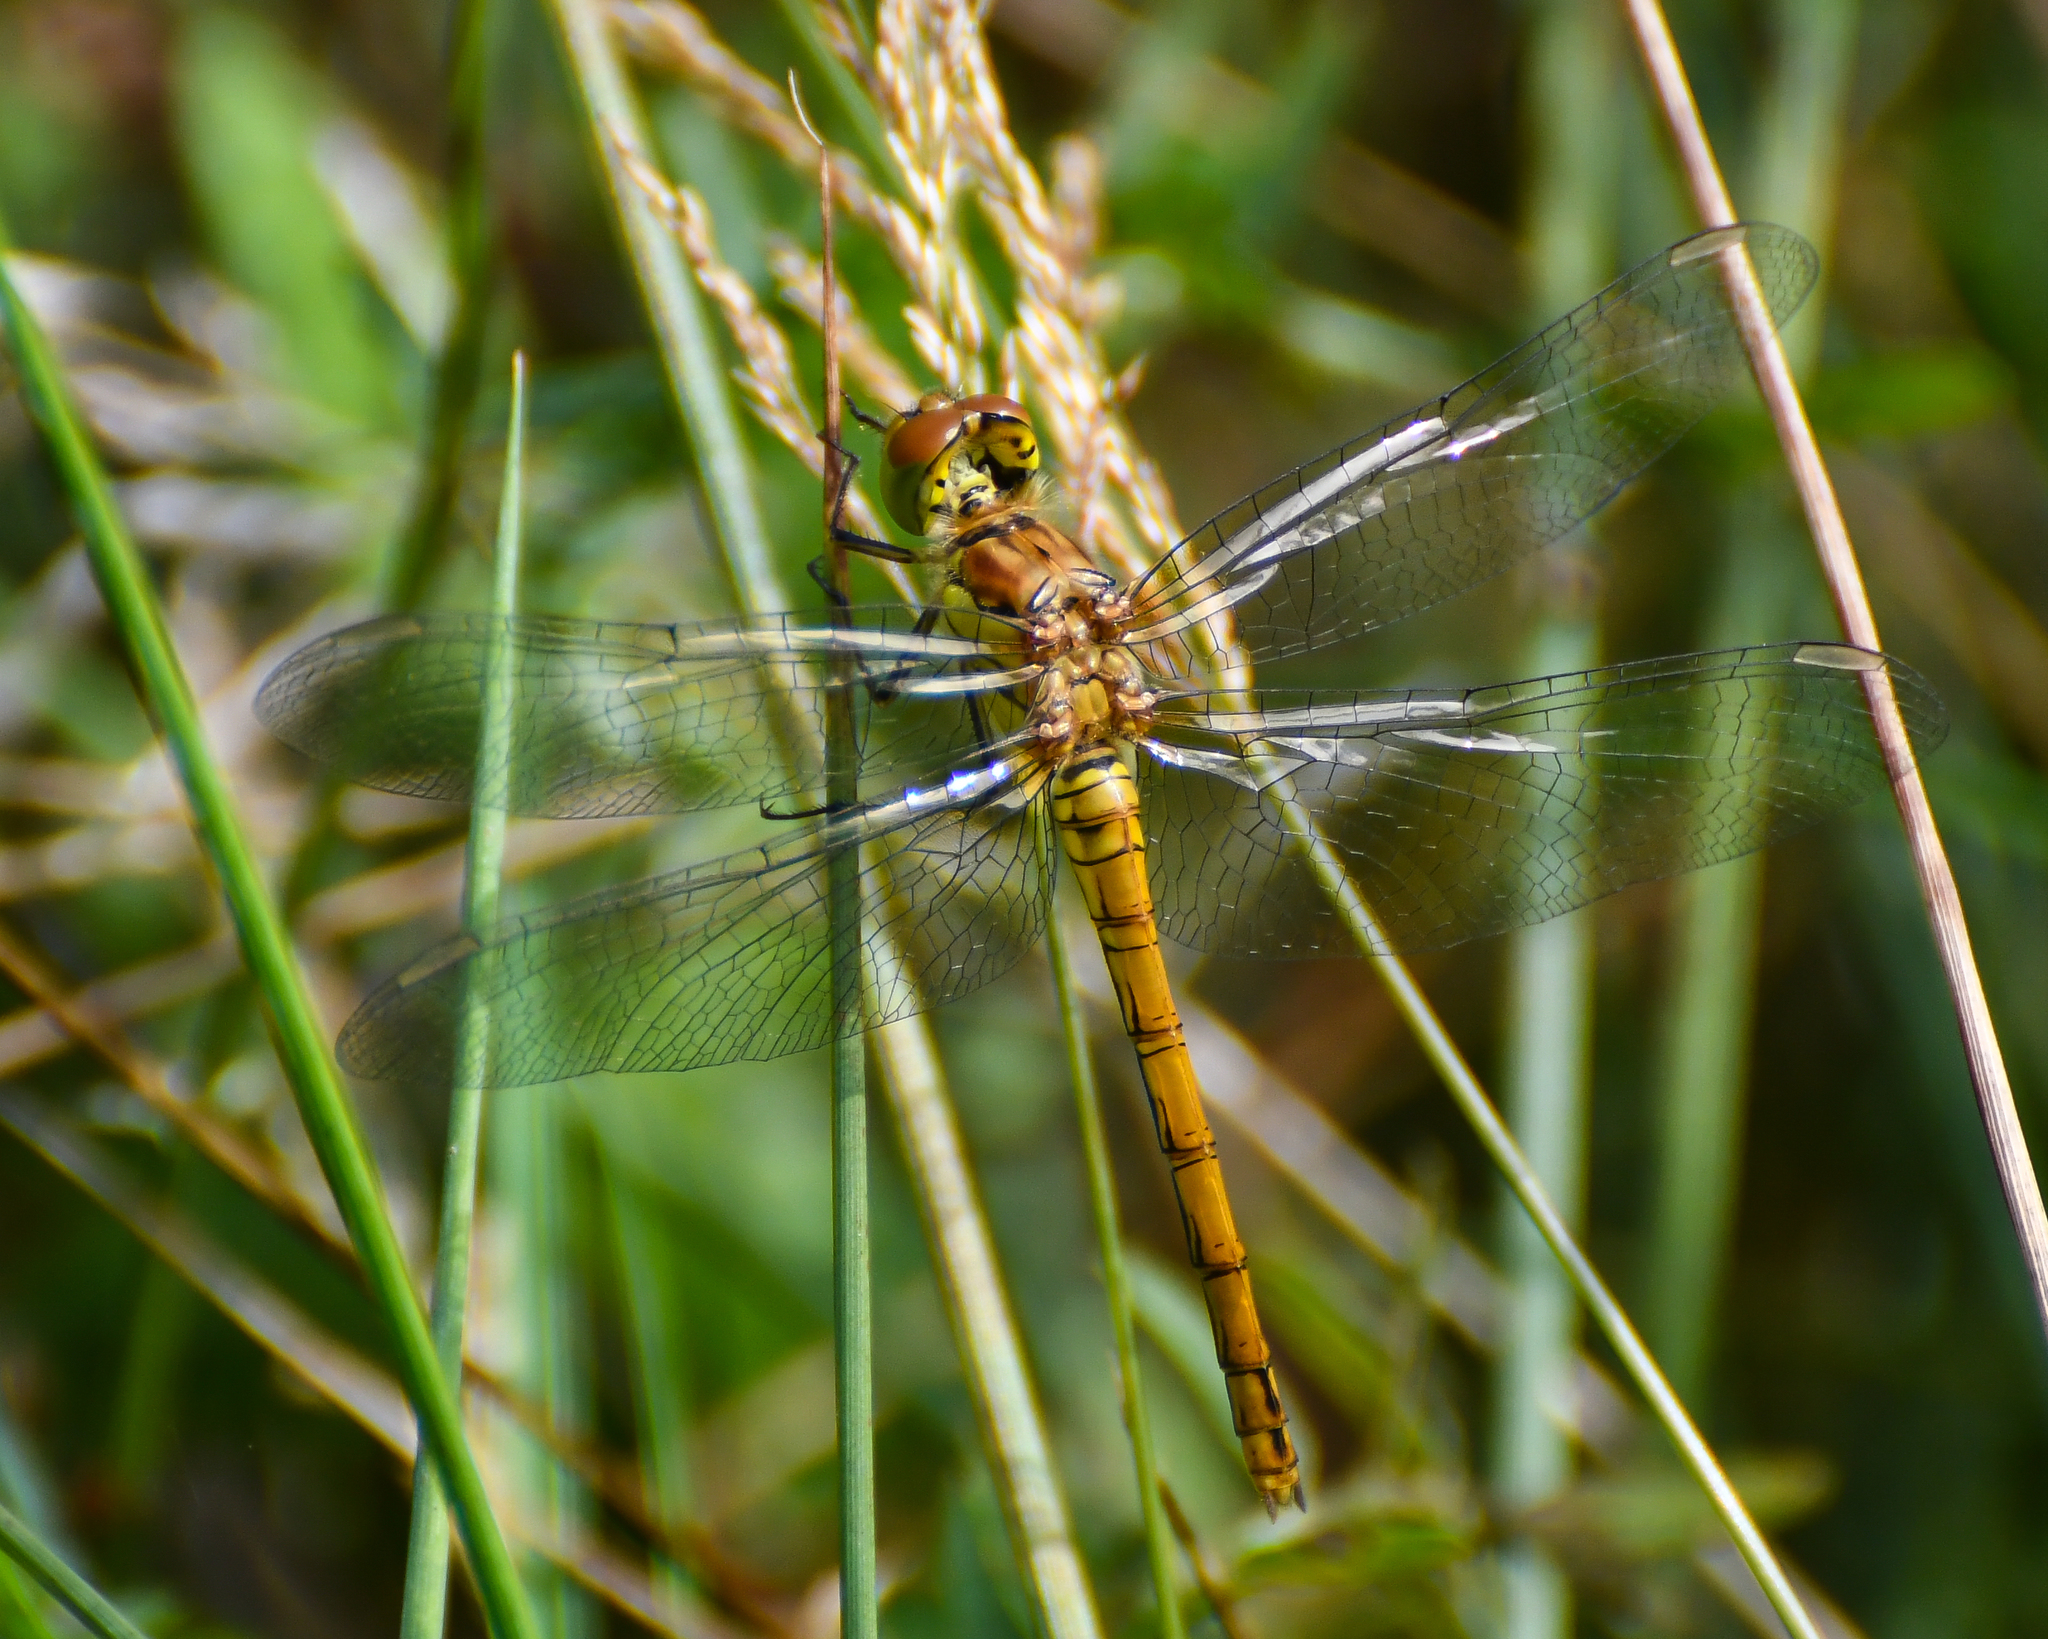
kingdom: Animalia
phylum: Arthropoda
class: Insecta
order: Odonata
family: Libellulidae
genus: Sympetrum
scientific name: Sympetrum striolatum
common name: Common darter
